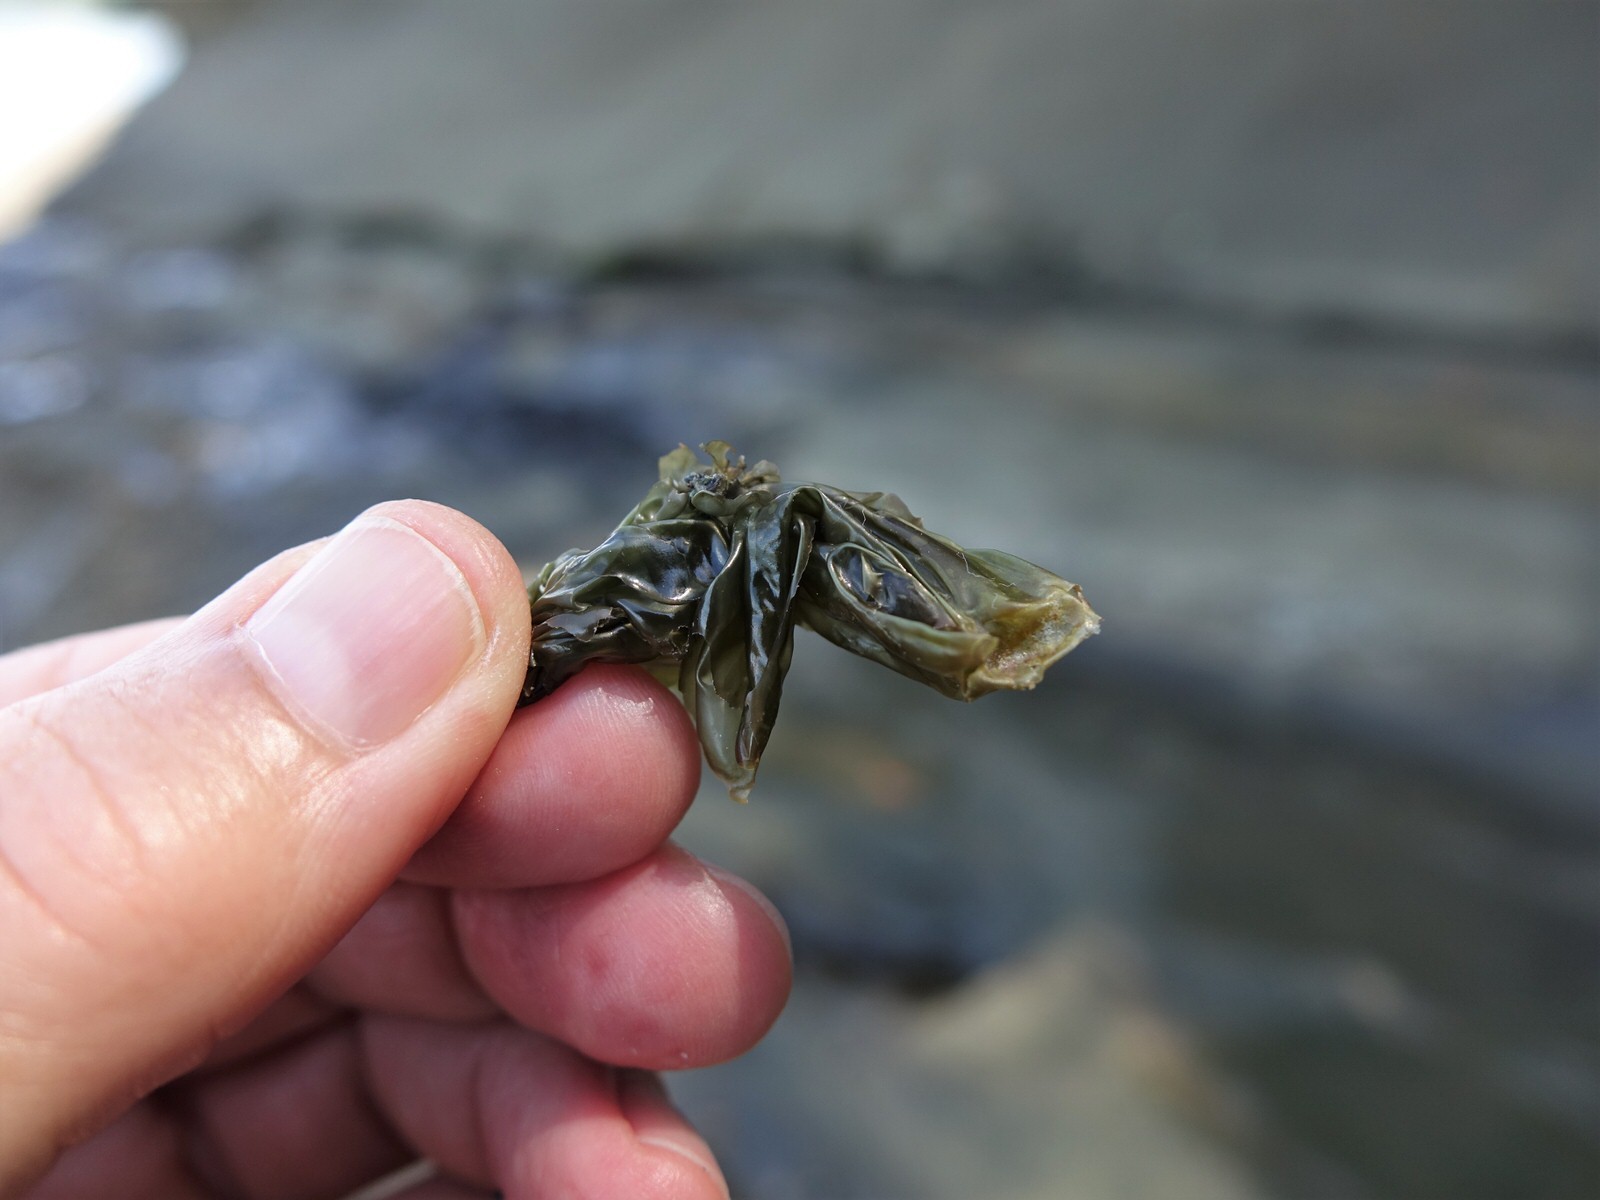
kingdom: Plantae
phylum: Rhodophyta
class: Bangiophyceae
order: Bangiales
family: Bangiaceae
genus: Clymene
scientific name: Clymene coleana
